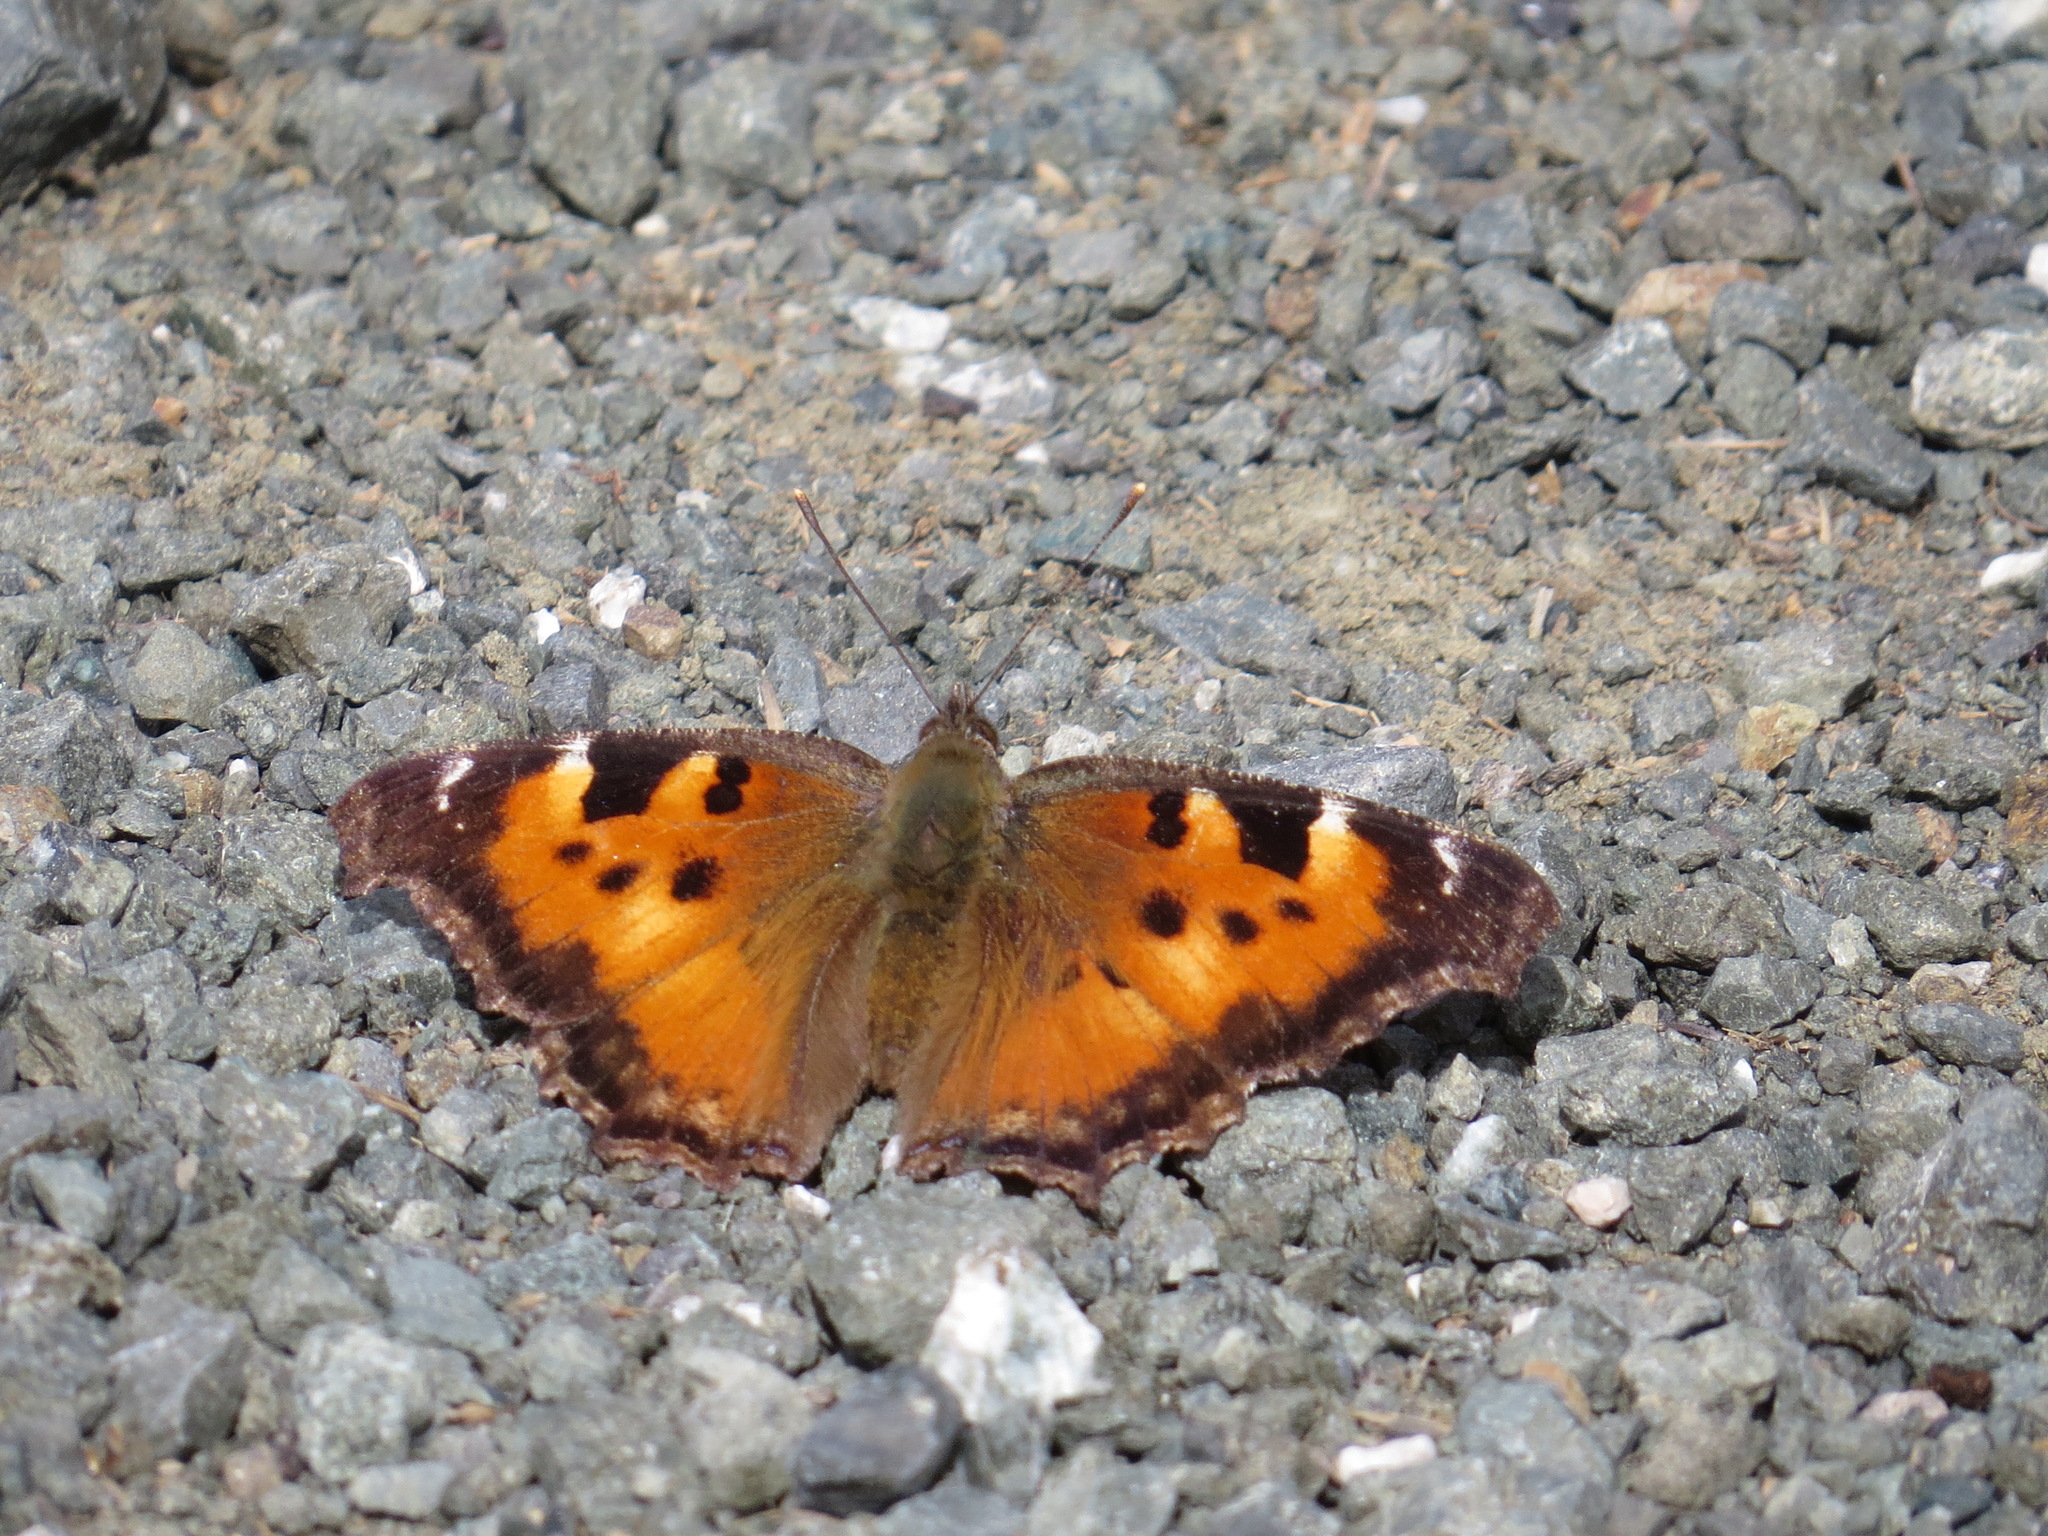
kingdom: Animalia
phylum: Arthropoda
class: Insecta
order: Lepidoptera
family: Nymphalidae
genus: Nymphalis
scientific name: Nymphalis californica
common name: California tortoiseshell
